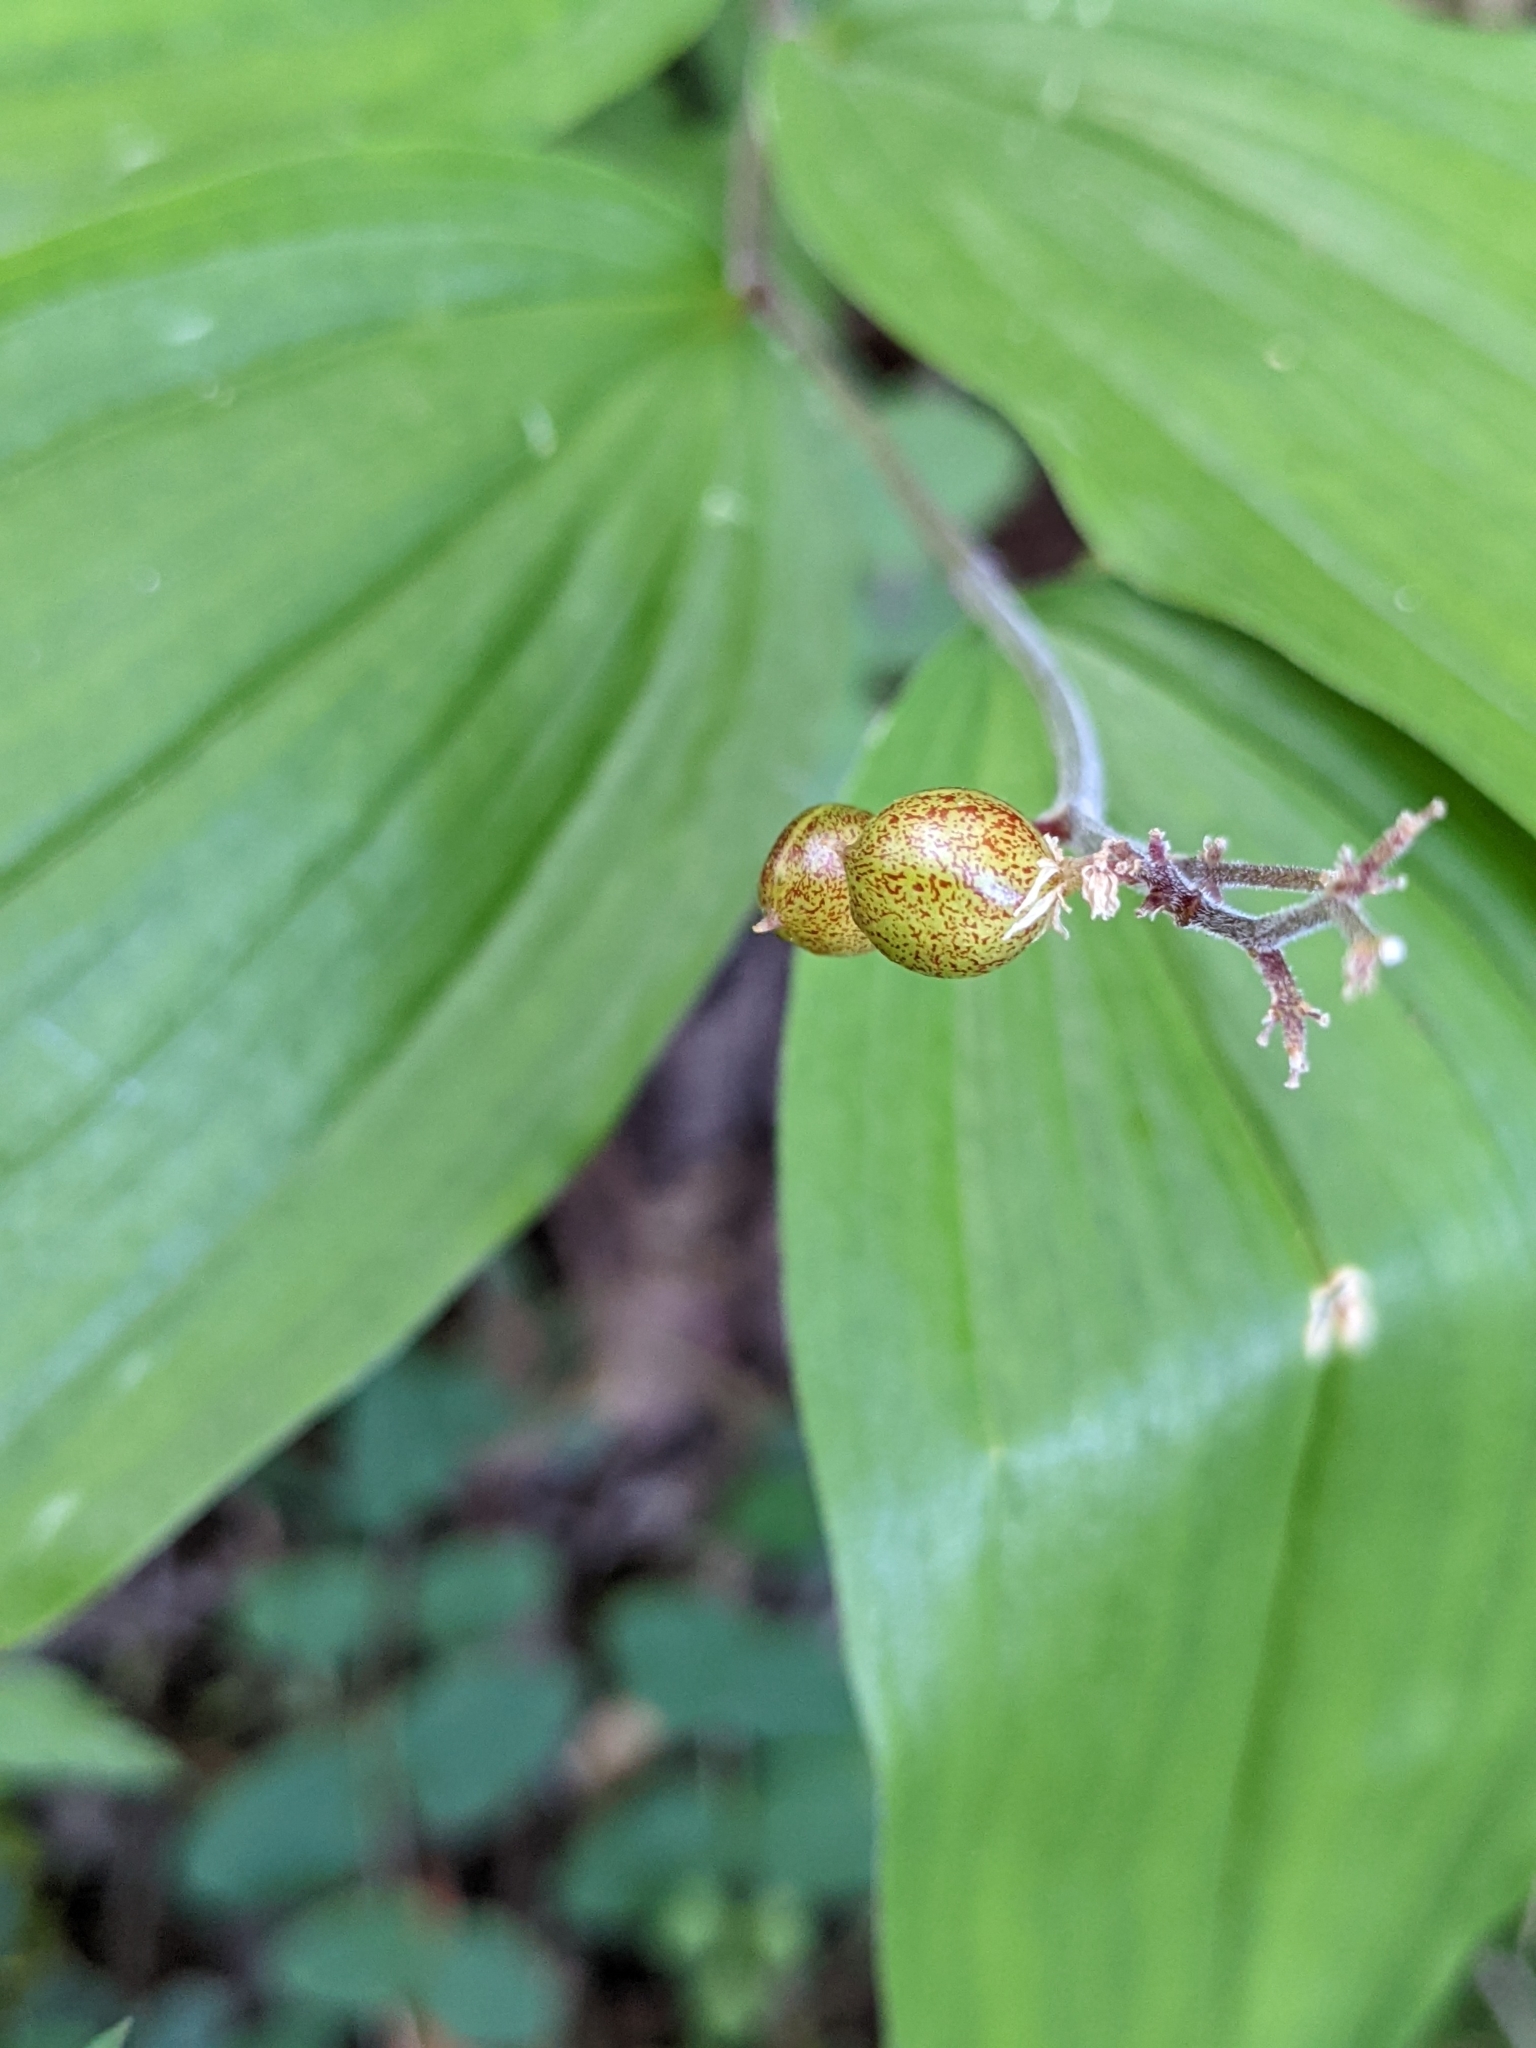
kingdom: Plantae
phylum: Tracheophyta
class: Liliopsida
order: Asparagales
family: Asparagaceae
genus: Maianthemum
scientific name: Maianthemum racemosum
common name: False spikenard
